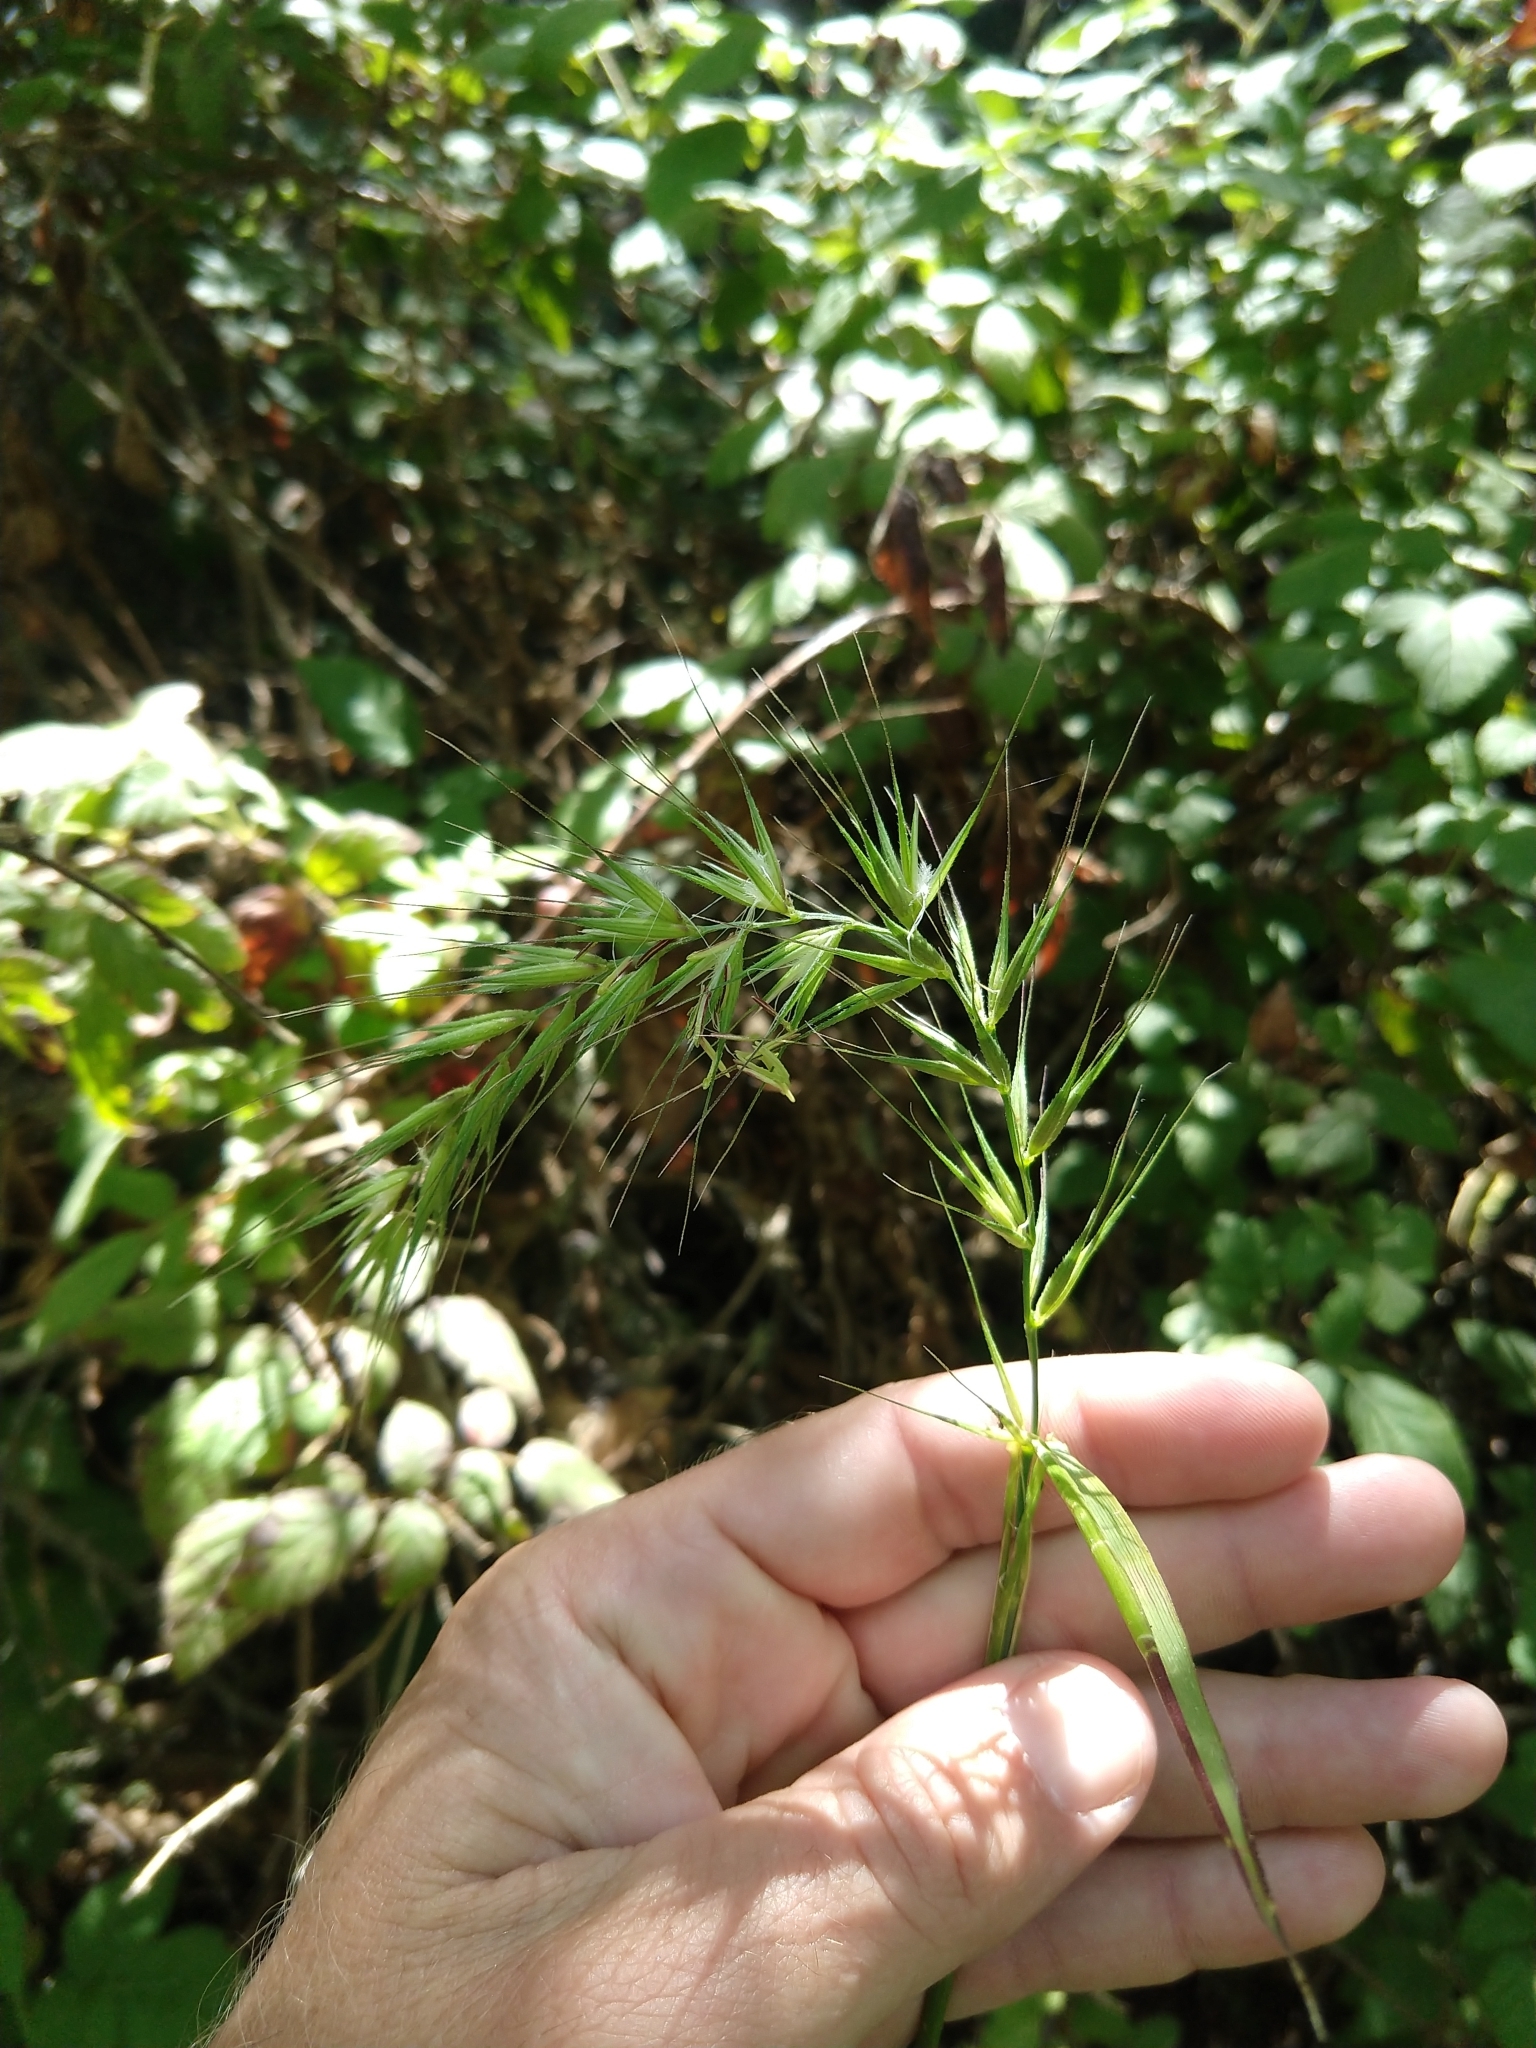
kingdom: Plantae
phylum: Tracheophyta
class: Liliopsida
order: Poales
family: Poaceae
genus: Elymus
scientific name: Elymus californicus
